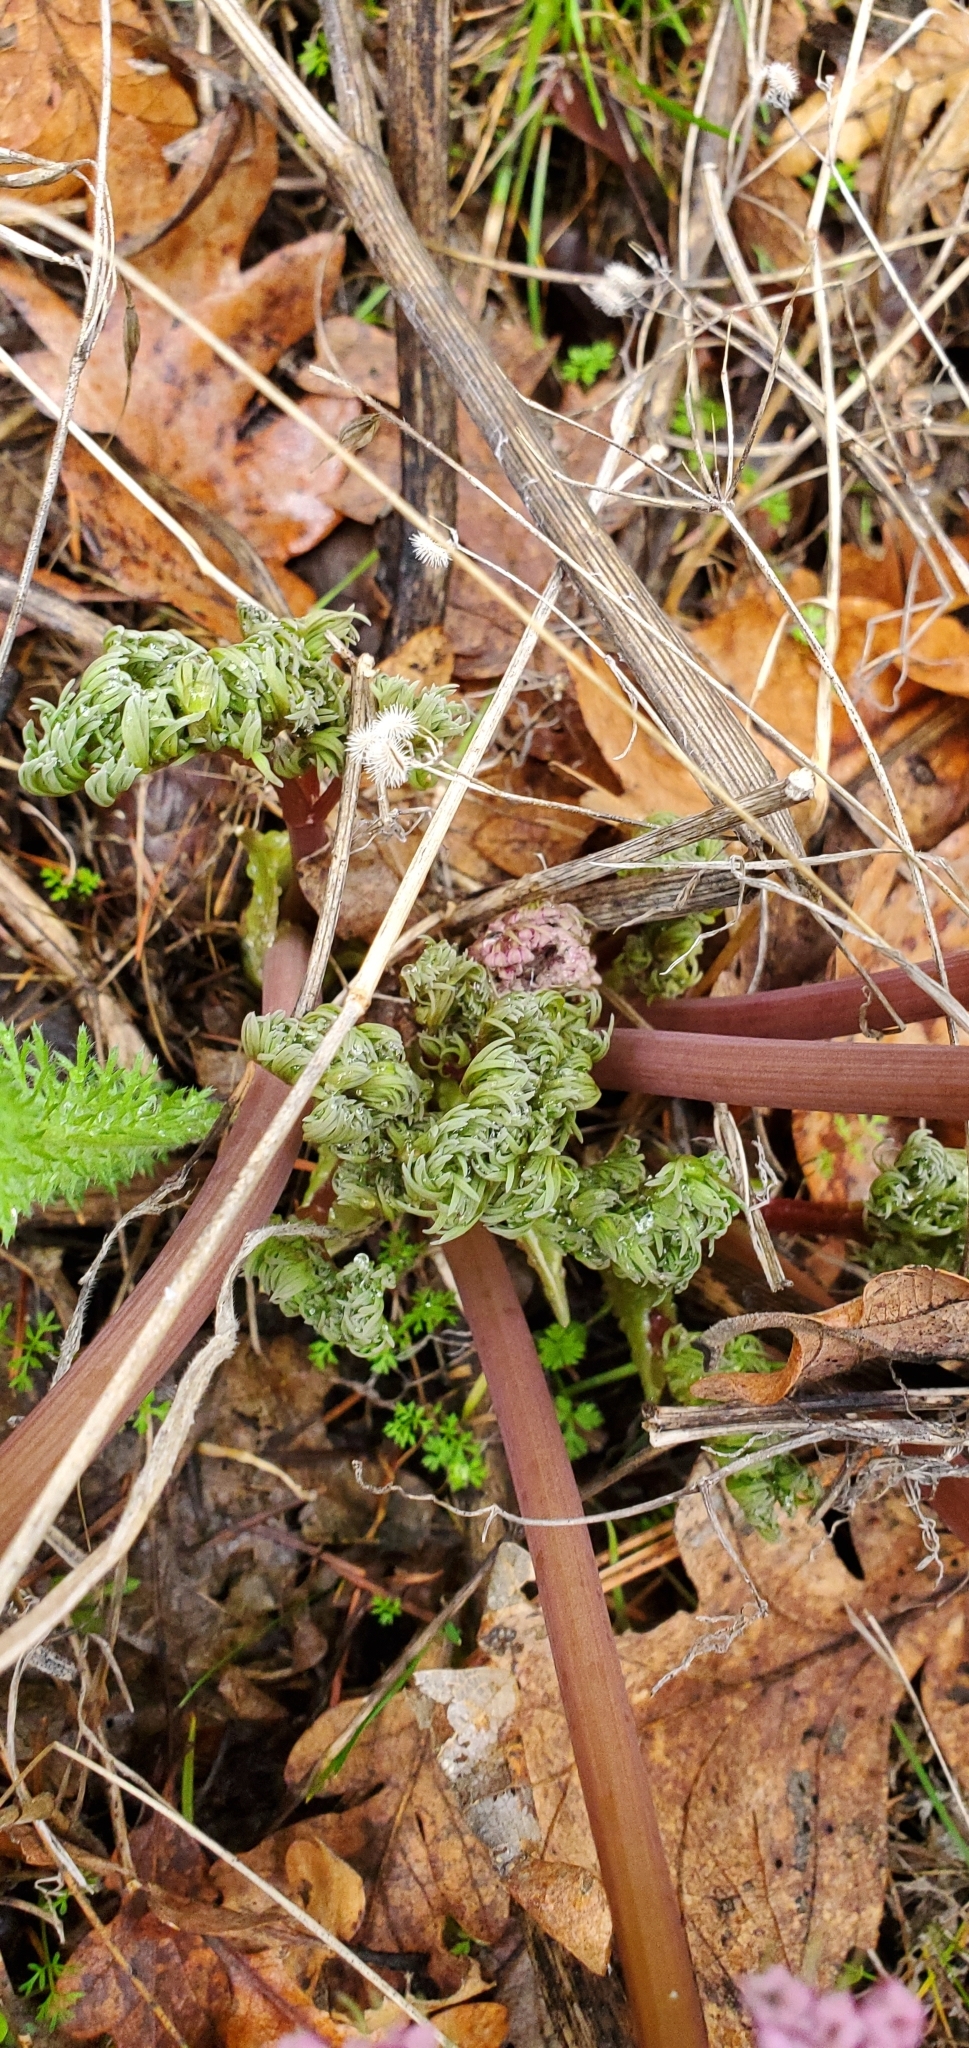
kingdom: Plantae
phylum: Tracheophyta
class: Magnoliopsida
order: Apiales
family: Apiaceae
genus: Lomatium
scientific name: Lomatium columbianum
